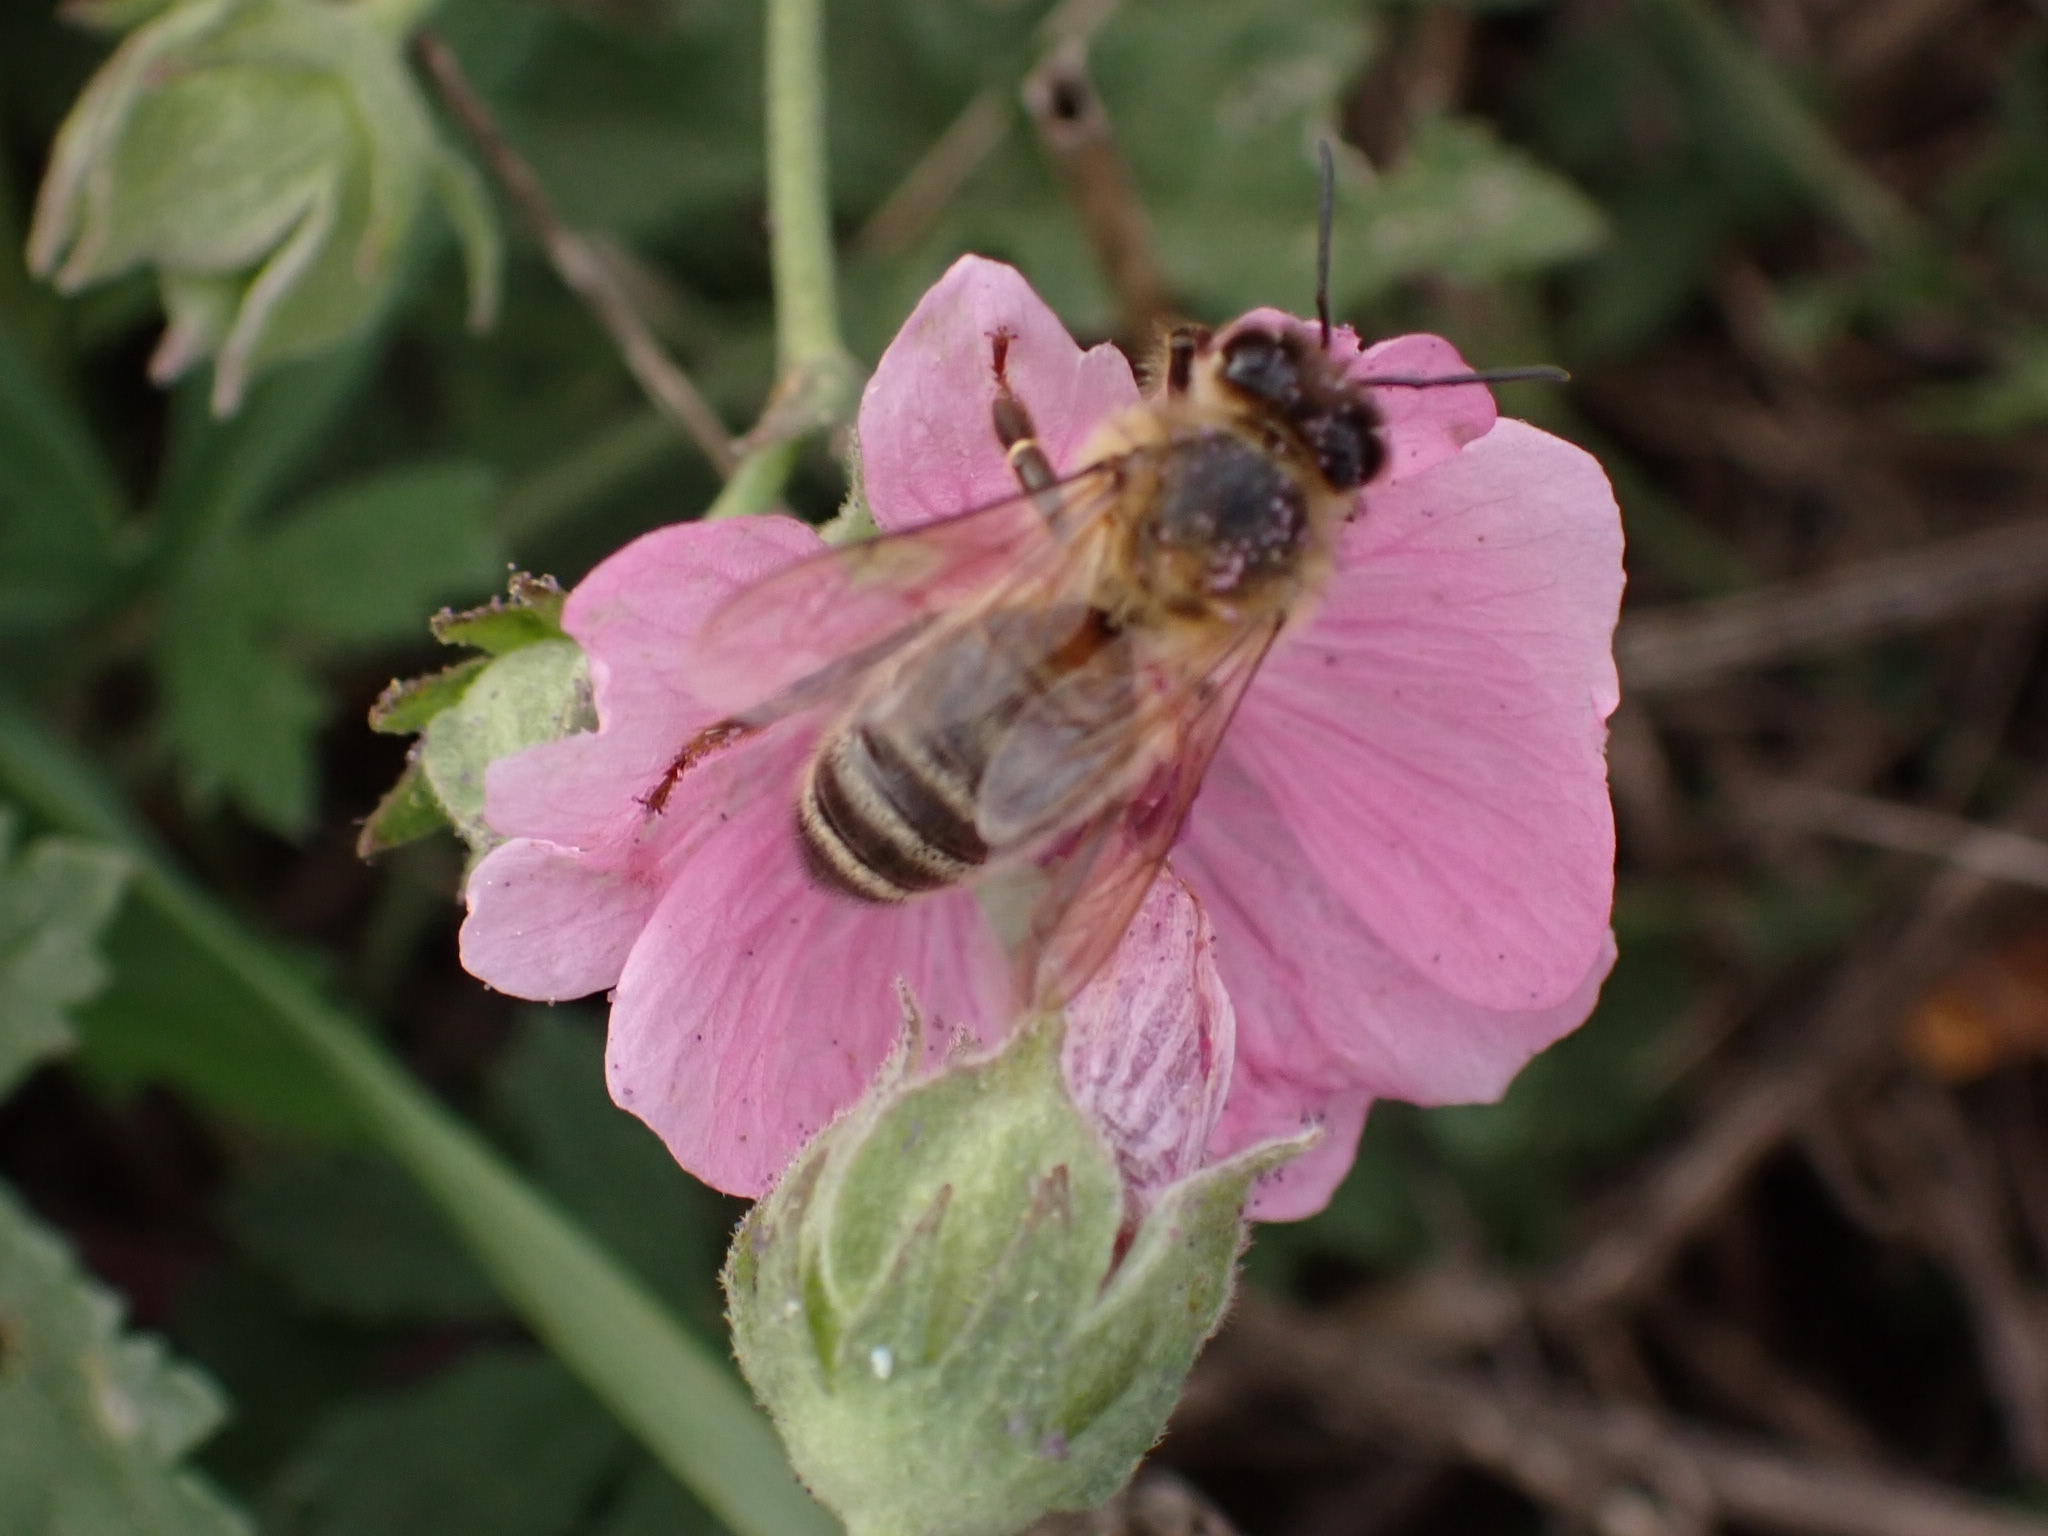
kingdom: Animalia
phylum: Arthropoda
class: Insecta
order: Hymenoptera
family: Apidae
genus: Apis
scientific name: Apis mellifera
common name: Honey bee
